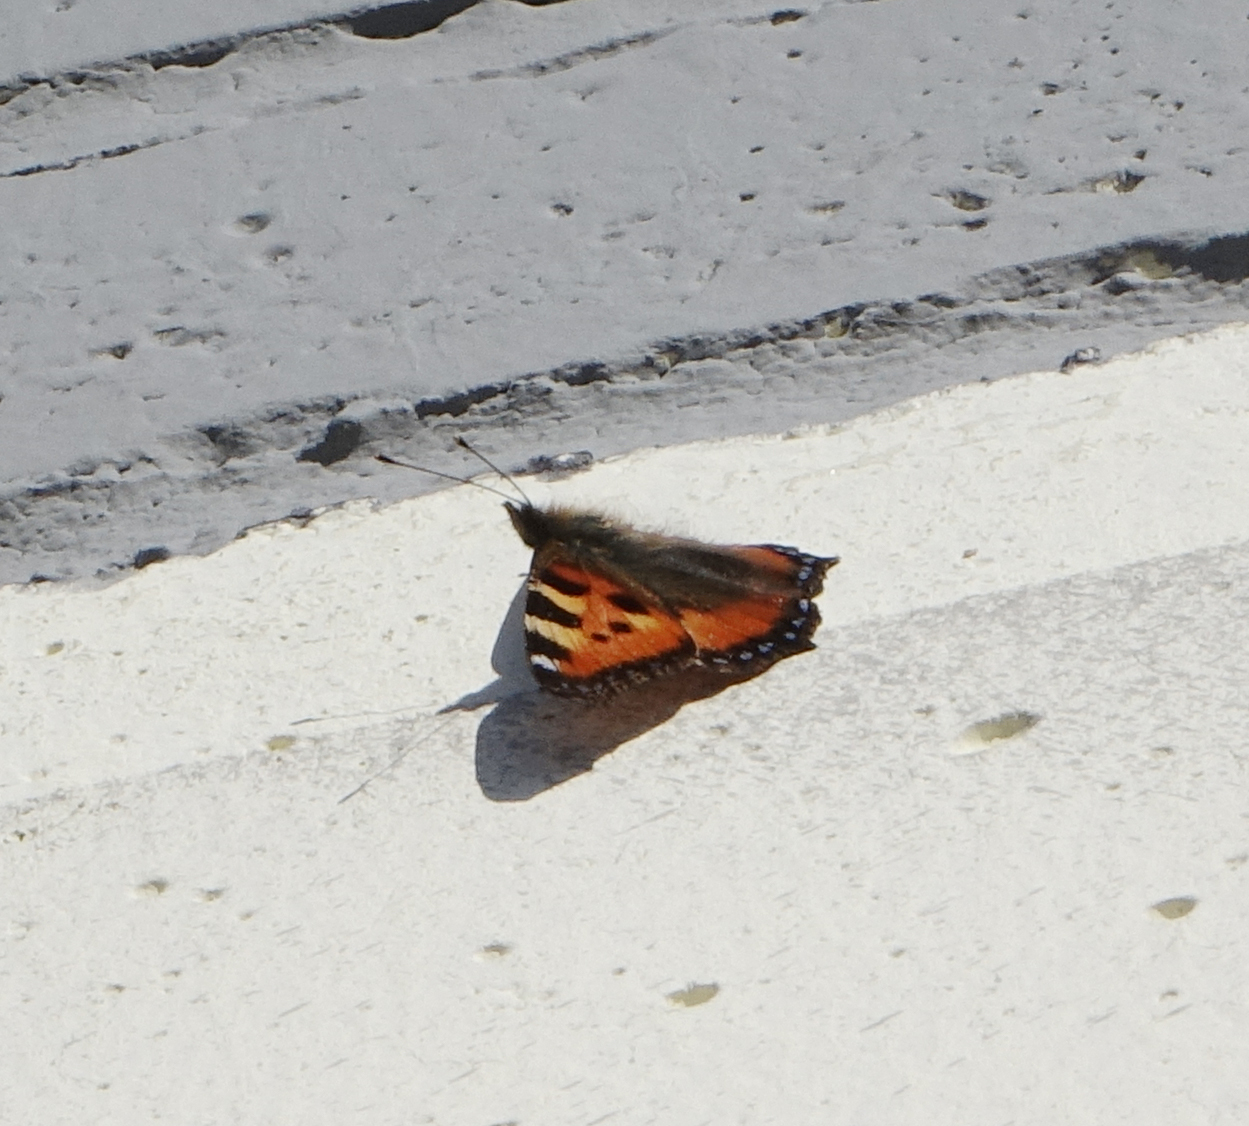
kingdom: Animalia
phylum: Arthropoda
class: Insecta
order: Lepidoptera
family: Nymphalidae
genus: Aglais
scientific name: Aglais urticae
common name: Small tortoiseshell
